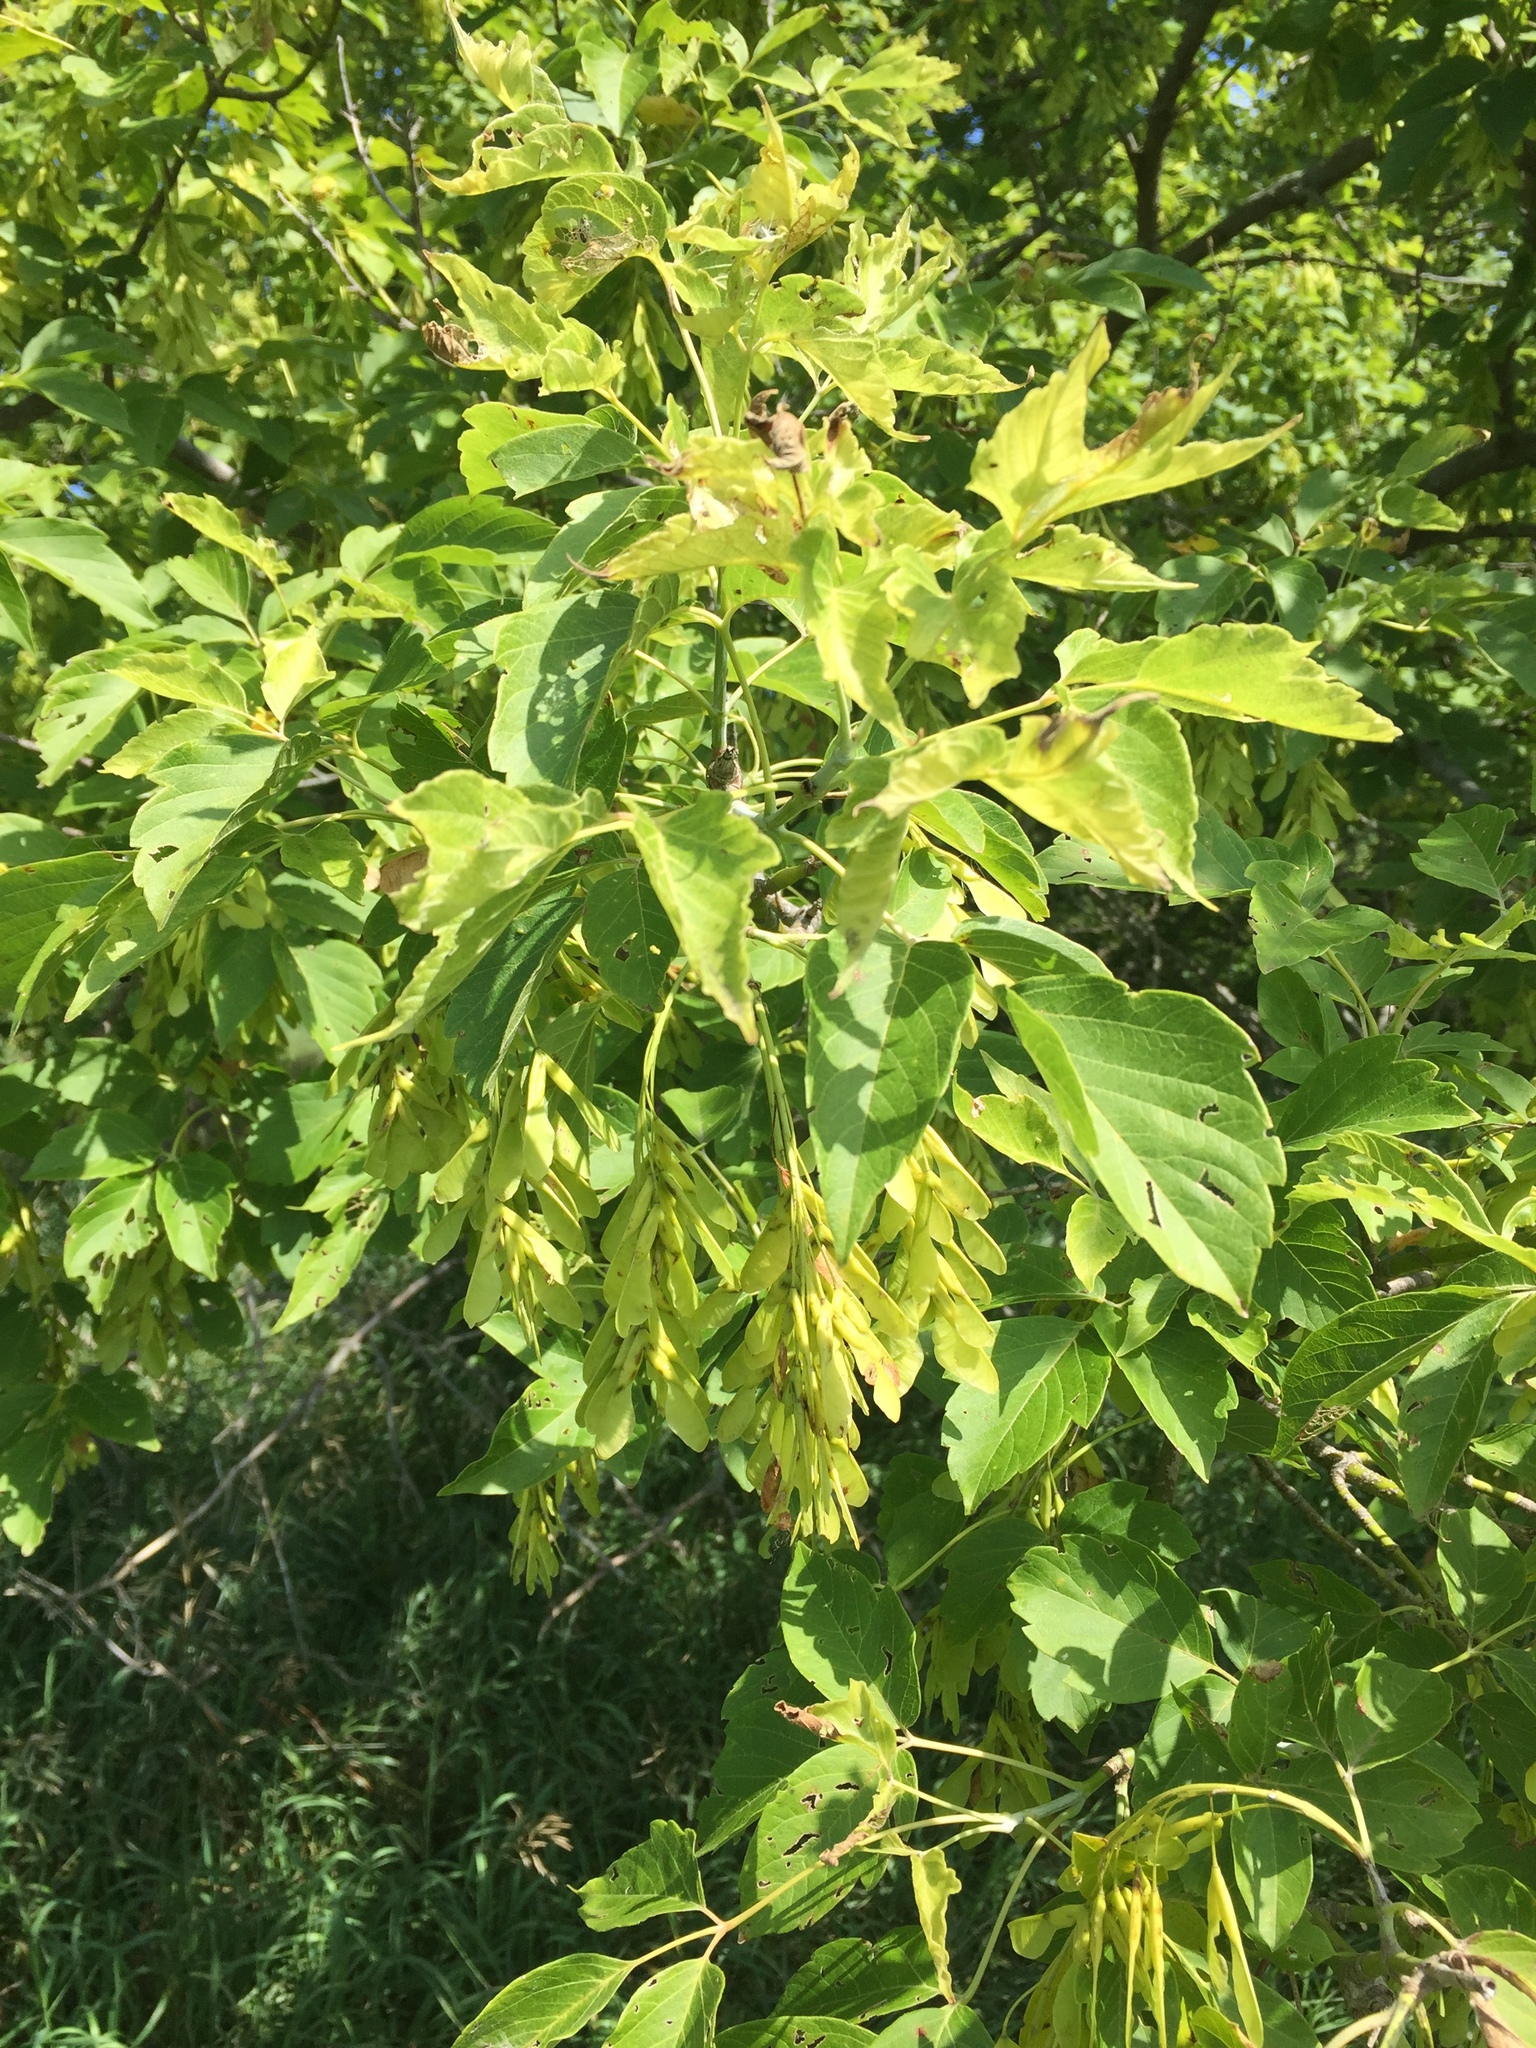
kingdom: Plantae
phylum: Tracheophyta
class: Magnoliopsida
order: Sapindales
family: Sapindaceae
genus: Acer
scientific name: Acer negundo
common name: Ashleaf maple
